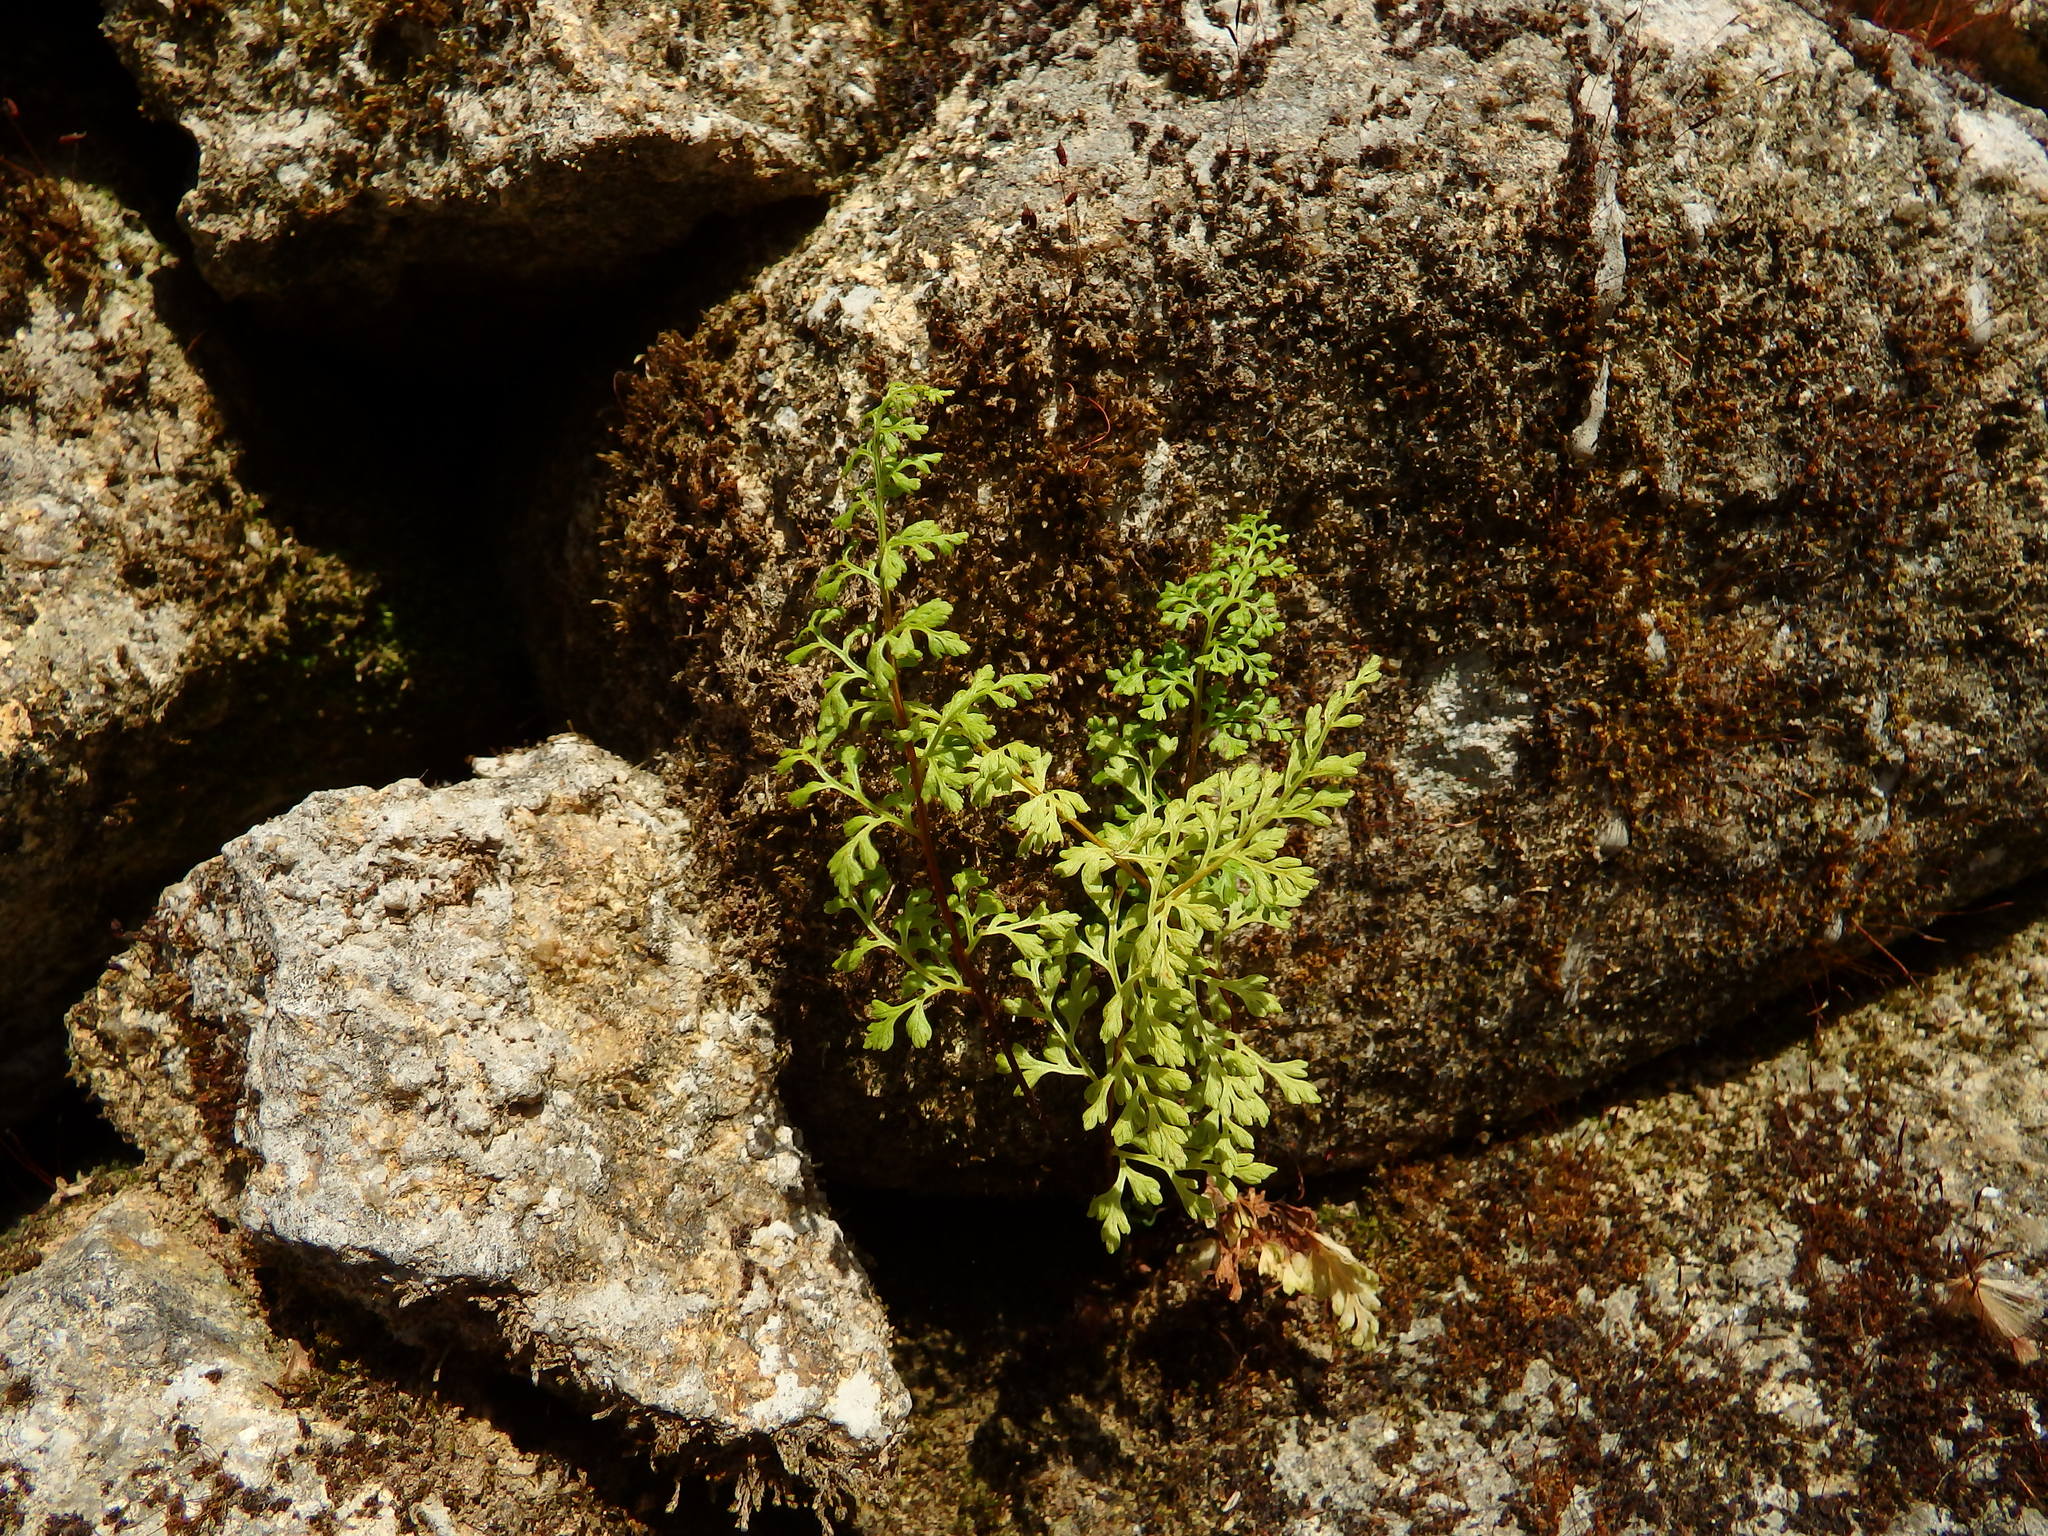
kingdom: Plantae
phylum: Tracheophyta
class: Polypodiopsida
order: Polypodiales
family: Pteridaceae
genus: Anogramma
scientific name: Anogramma leptophylla
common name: Jersey fern
